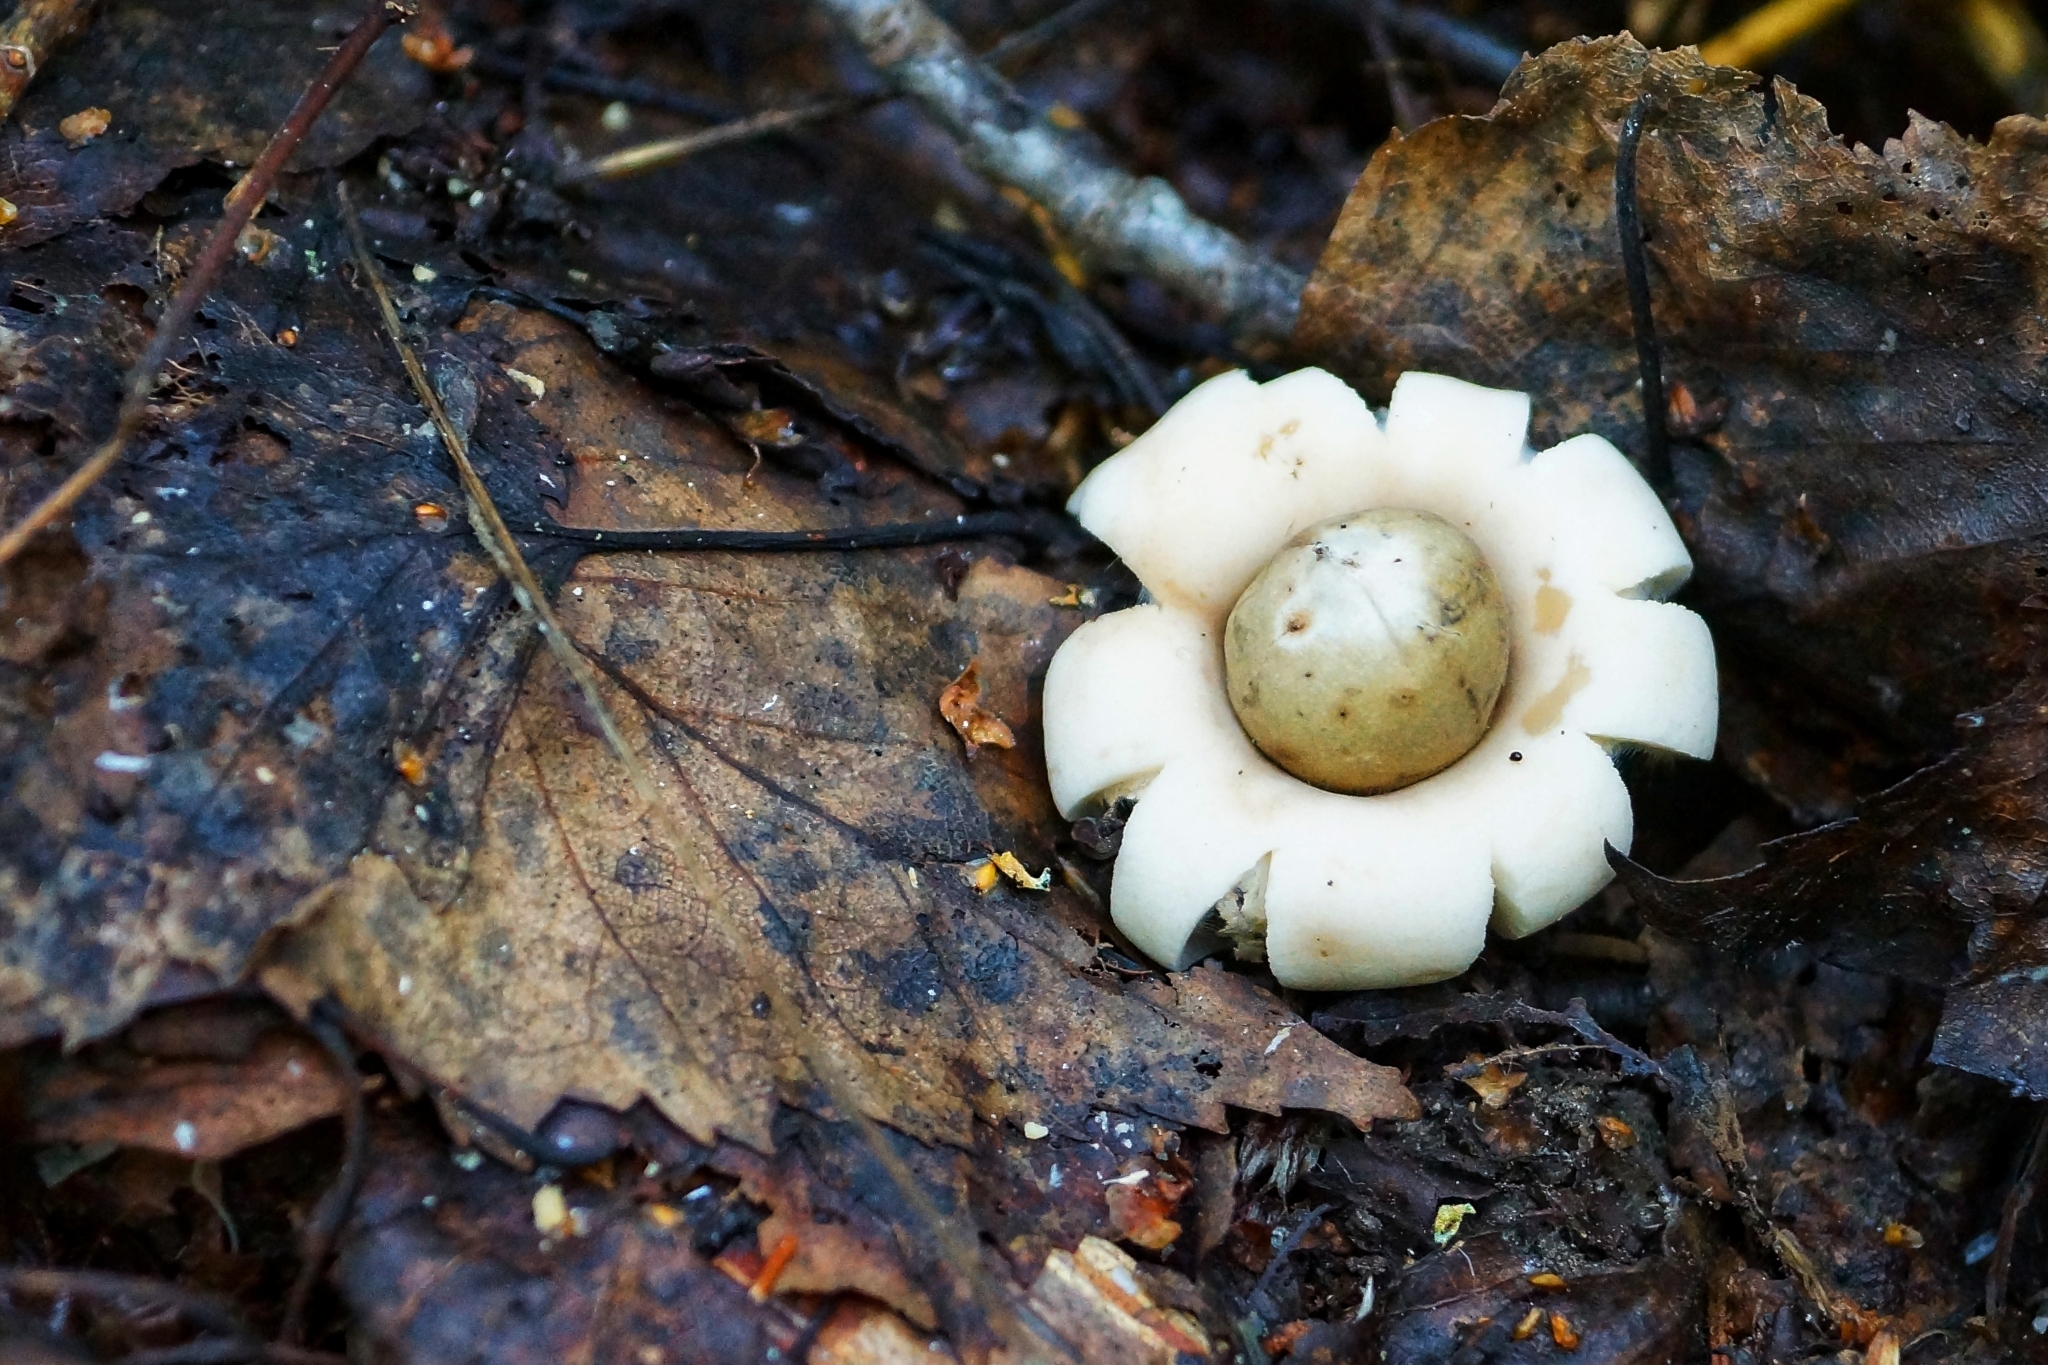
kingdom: Fungi
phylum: Basidiomycota
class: Agaricomycetes
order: Geastrales
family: Geastraceae
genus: Geastrum
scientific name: Geastrum fimbriatum
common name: Sessile earthstar
